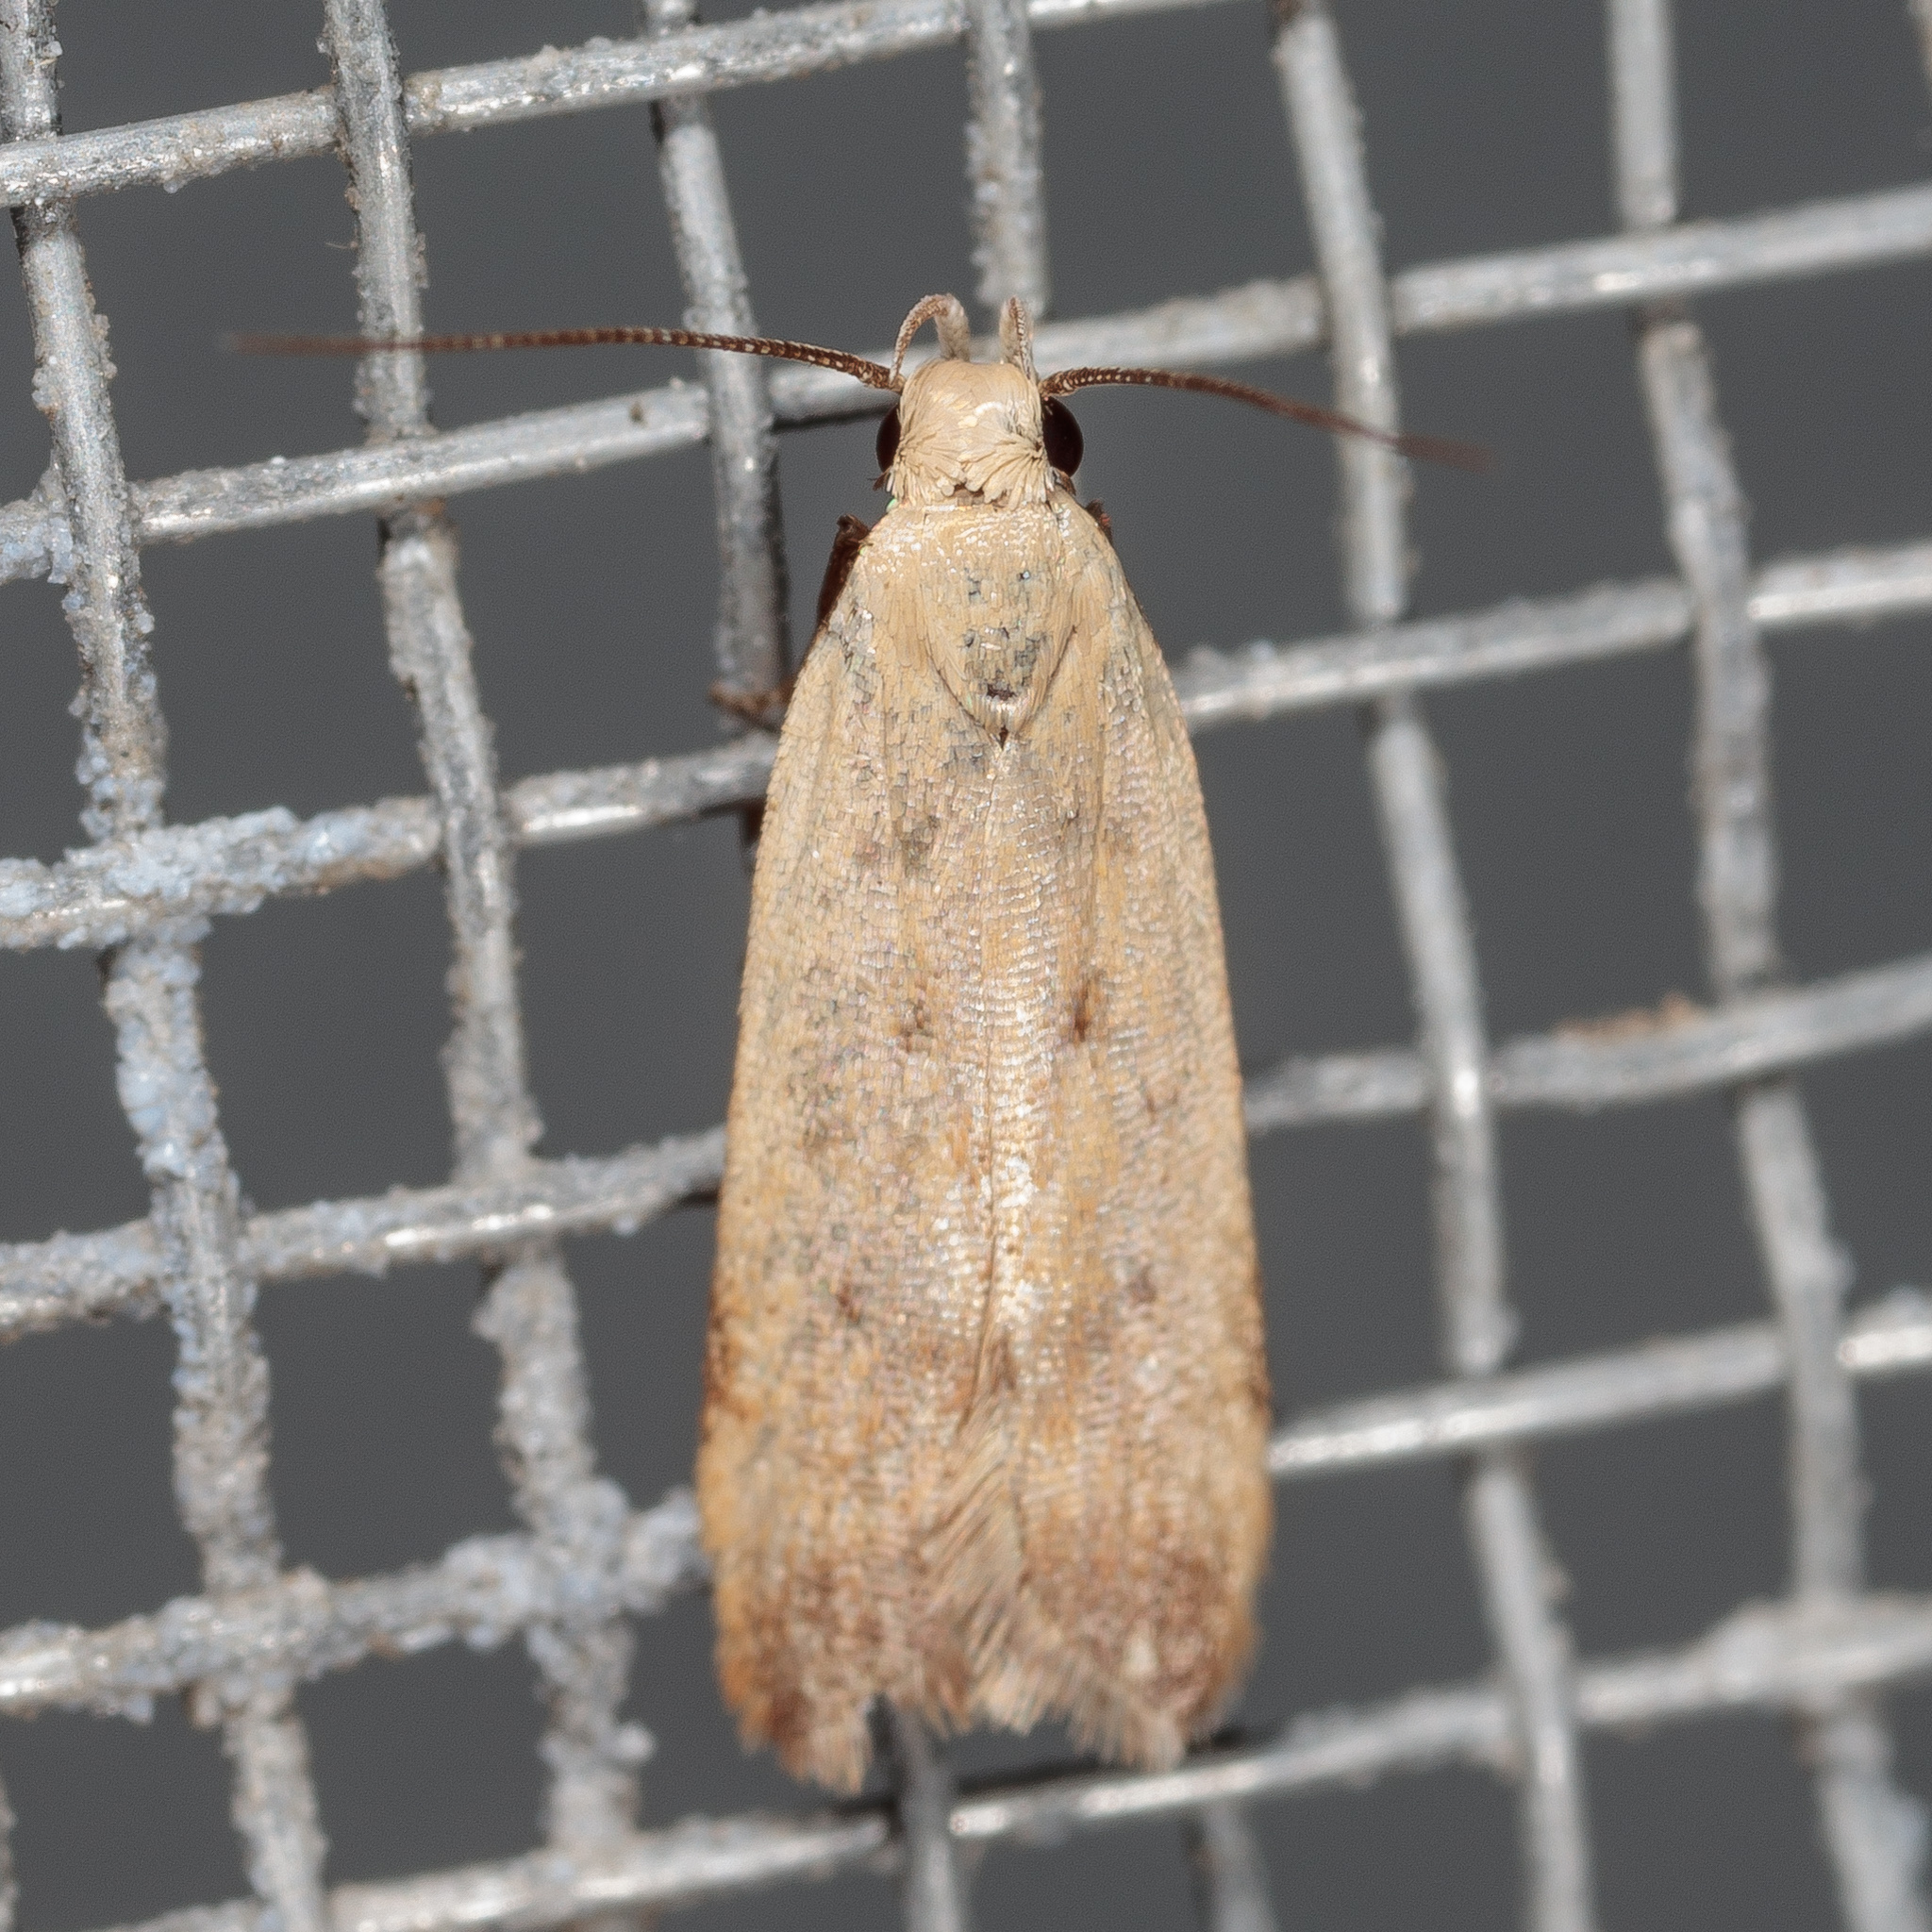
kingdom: Animalia
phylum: Arthropoda
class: Insecta
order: Lepidoptera
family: Gelechiidae
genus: Anacampsis
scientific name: Anacampsis fullonella
